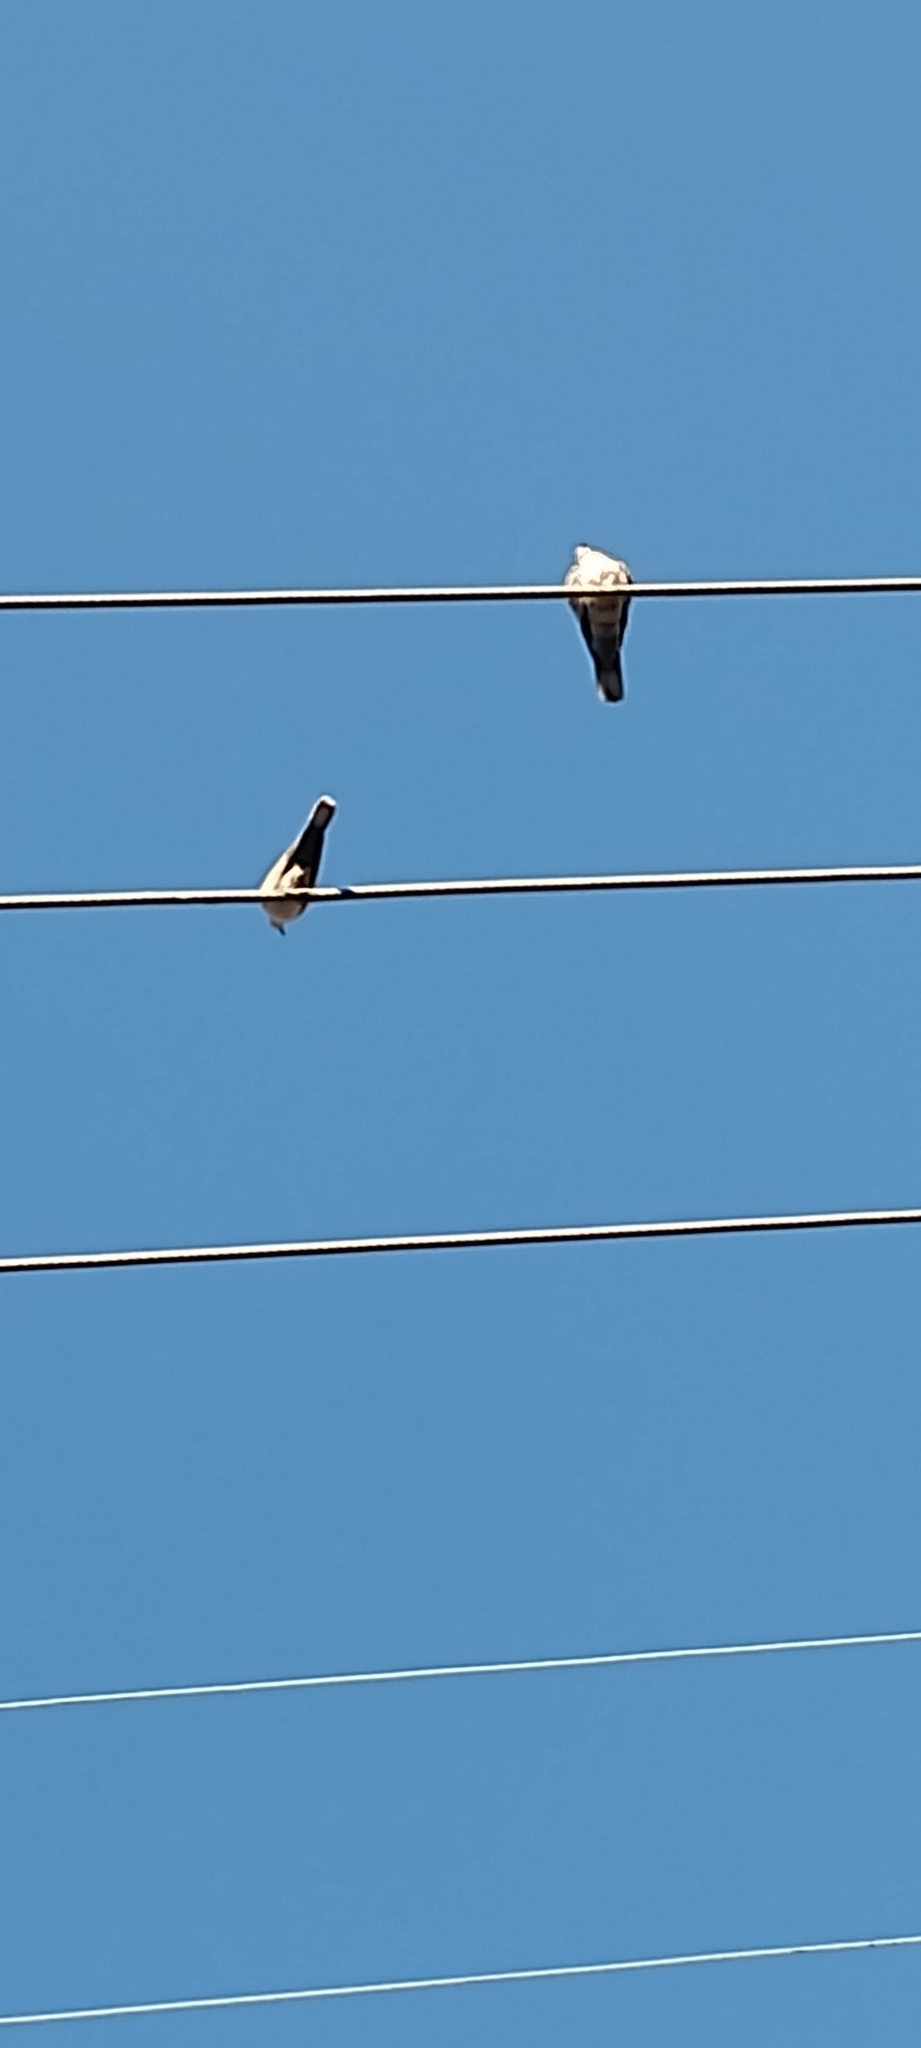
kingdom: Animalia
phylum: Chordata
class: Aves
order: Columbiformes
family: Columbidae
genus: Streptopelia
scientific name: Streptopelia decaocto
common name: Eurasian collared dove
